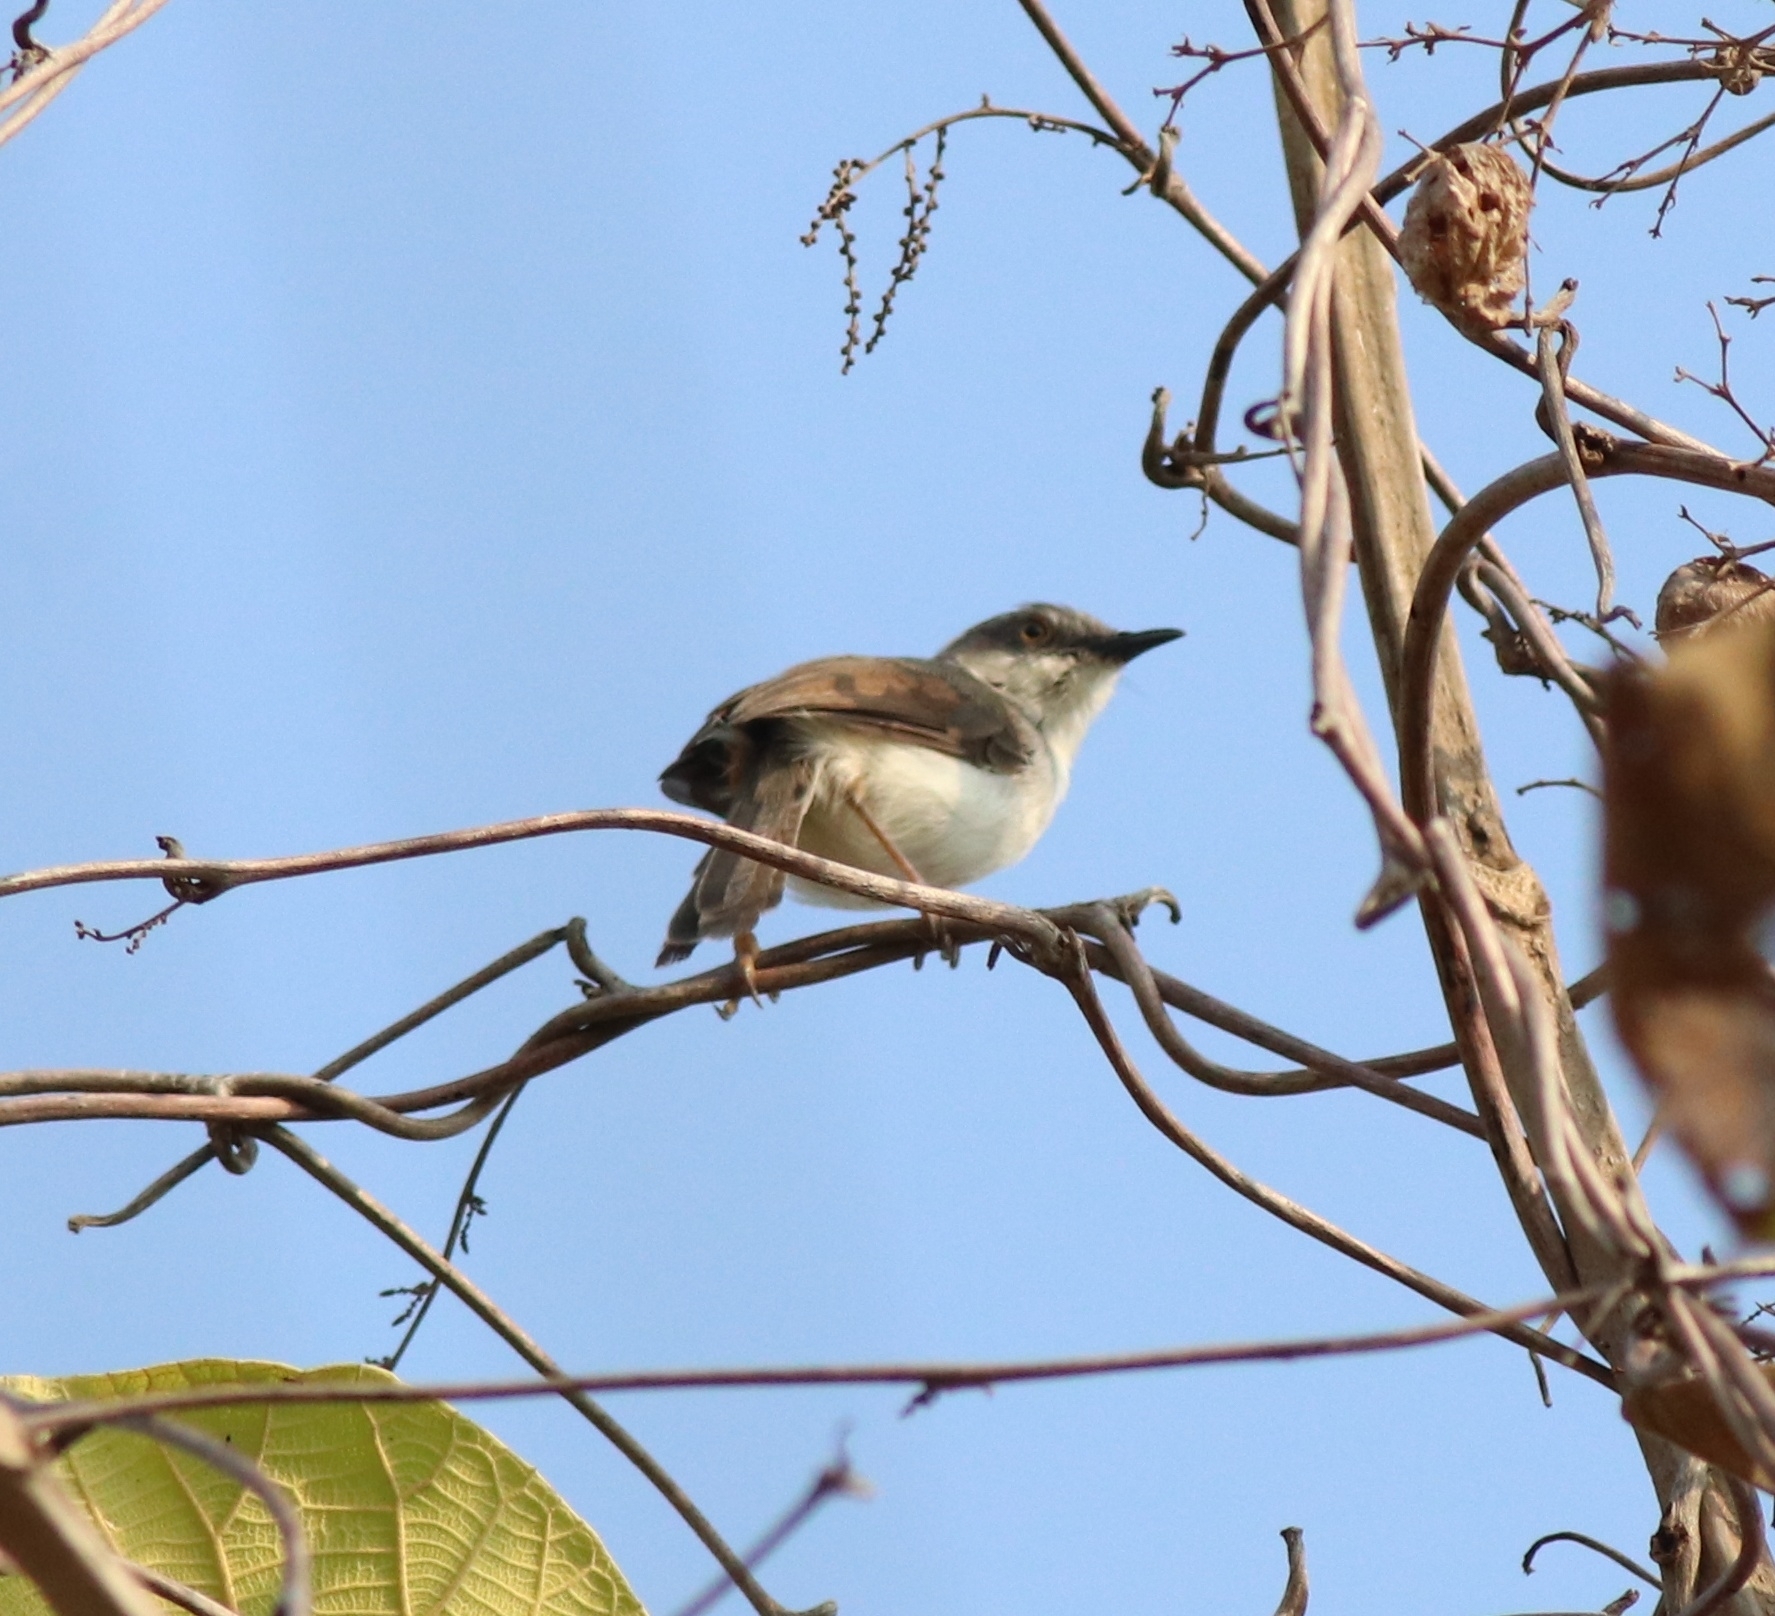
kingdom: Animalia
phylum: Chordata
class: Aves
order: Passeriformes
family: Cisticolidae
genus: Prinia
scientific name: Prinia hodgsonii
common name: Grey-breasted prinia
